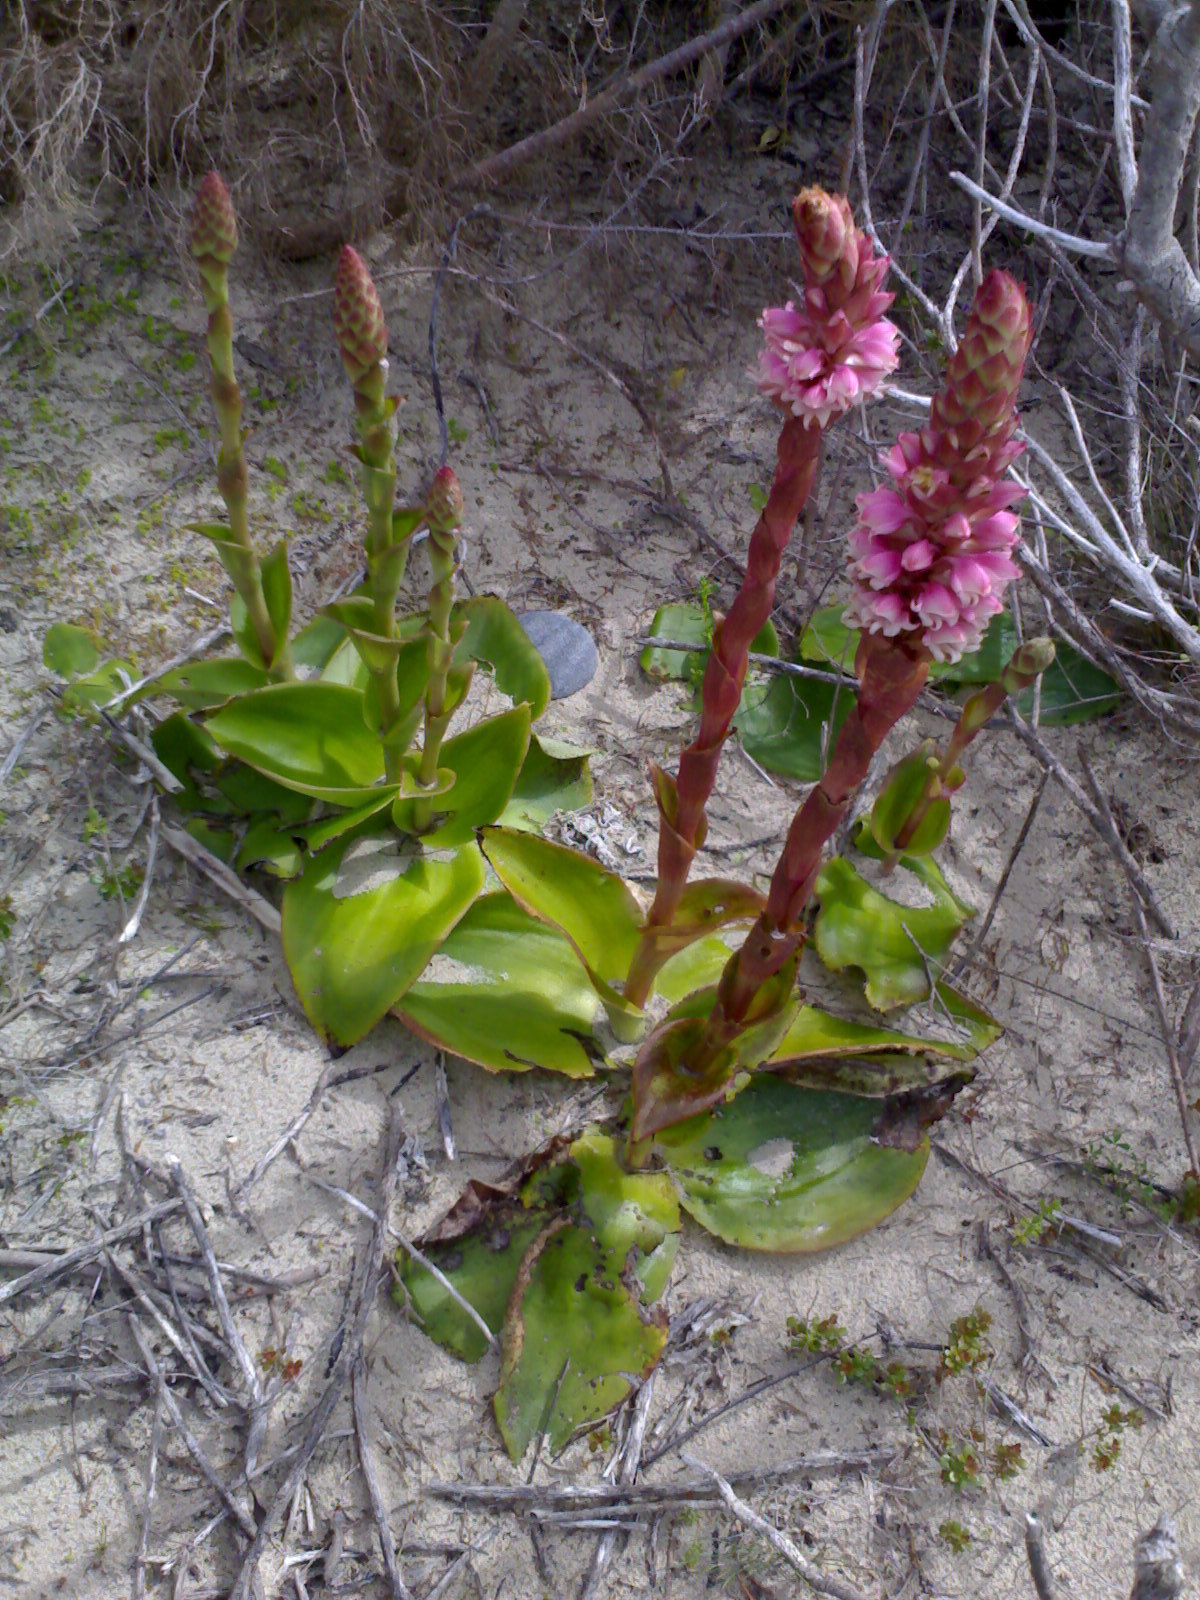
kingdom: Plantae
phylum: Tracheophyta
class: Liliopsida
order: Asparagales
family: Orchidaceae
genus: Satyrium
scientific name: Satyrium carneum
